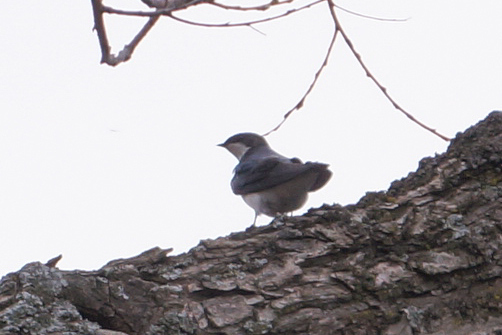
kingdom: Animalia
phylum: Chordata
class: Aves
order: Passeriformes
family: Hirundinidae
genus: Tachycineta
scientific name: Tachycineta bicolor
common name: Tree swallow
